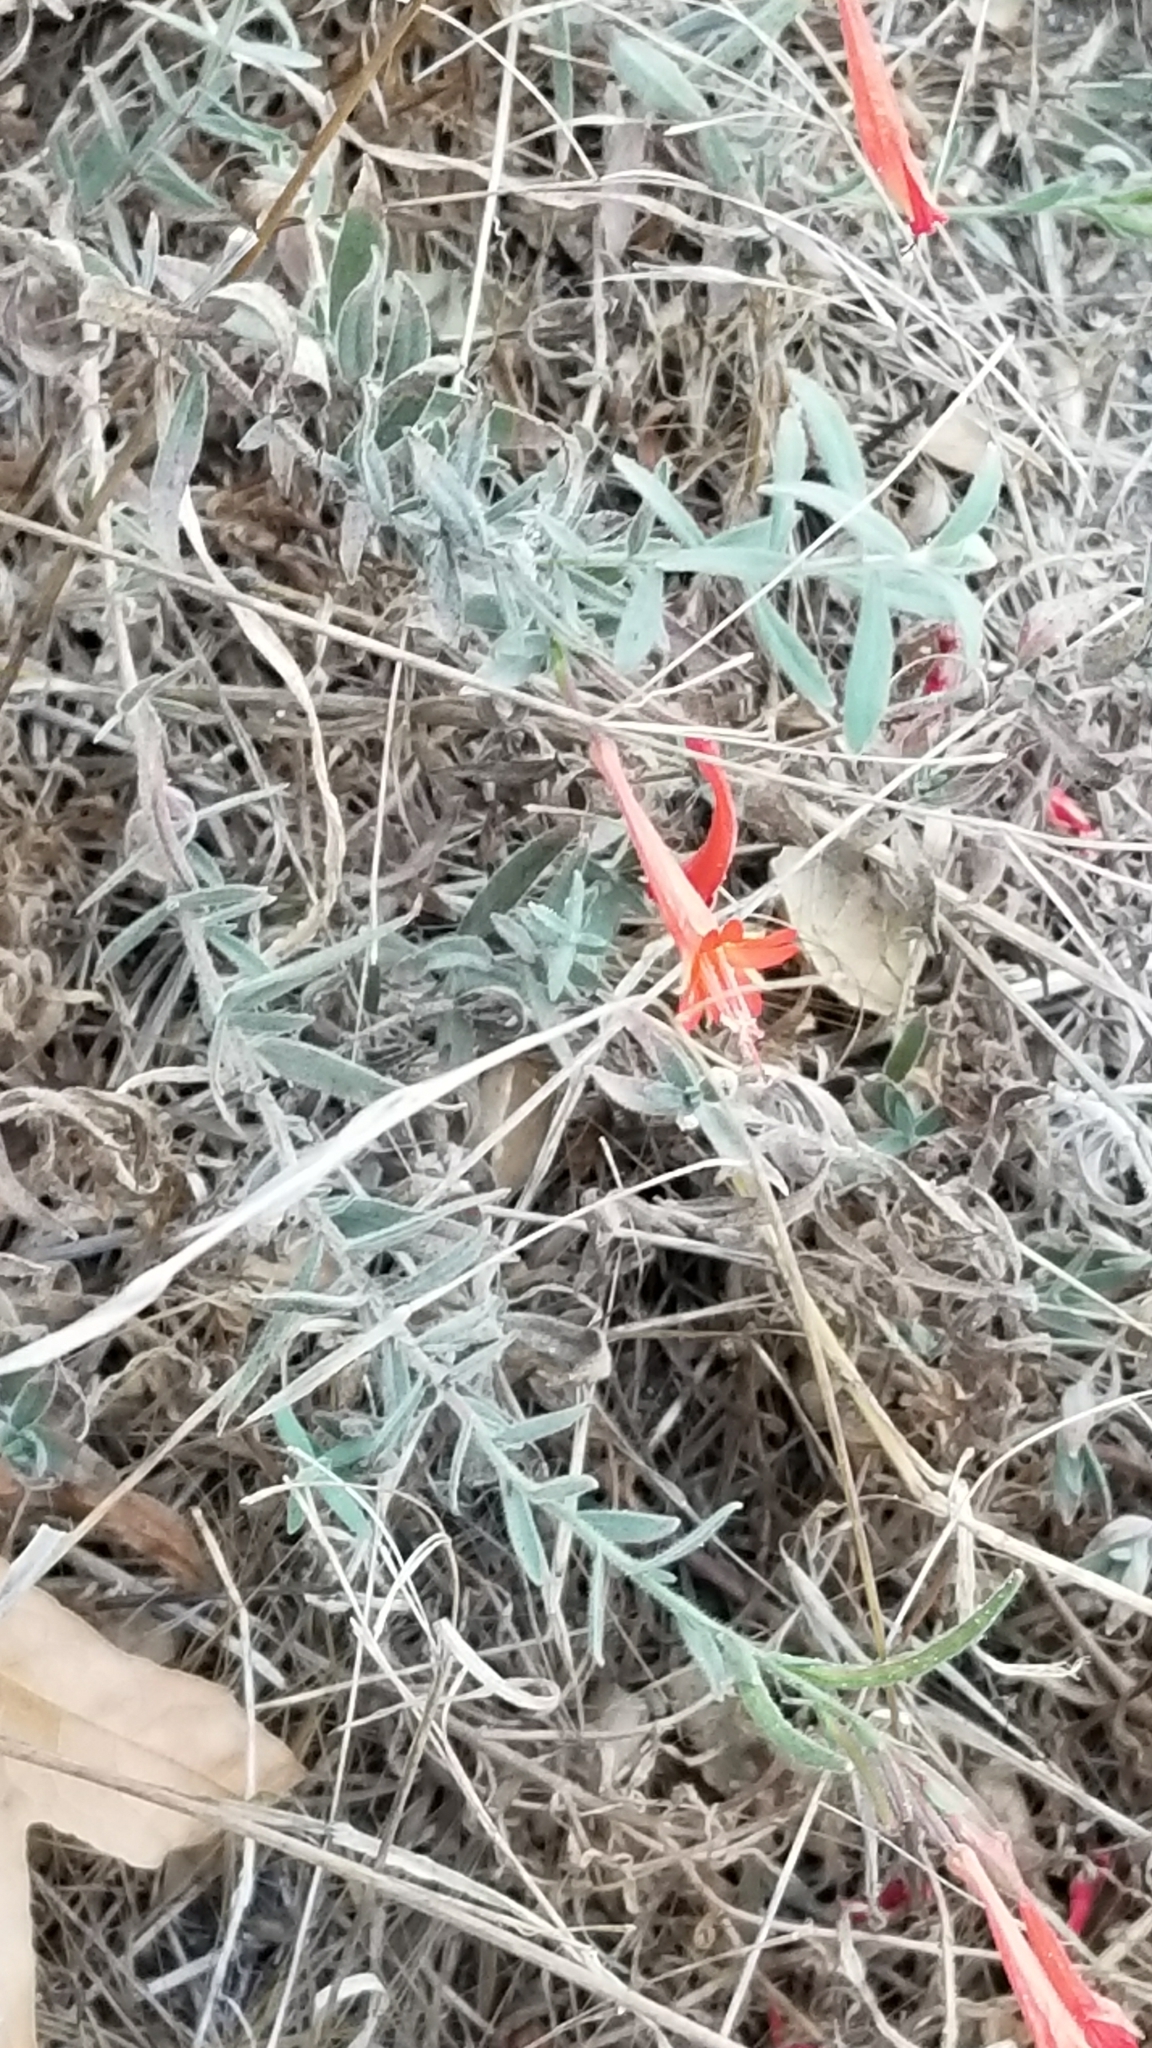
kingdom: Plantae
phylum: Tracheophyta
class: Magnoliopsida
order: Myrtales
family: Onagraceae
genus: Epilobium
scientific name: Epilobium canum
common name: California-fuchsia
